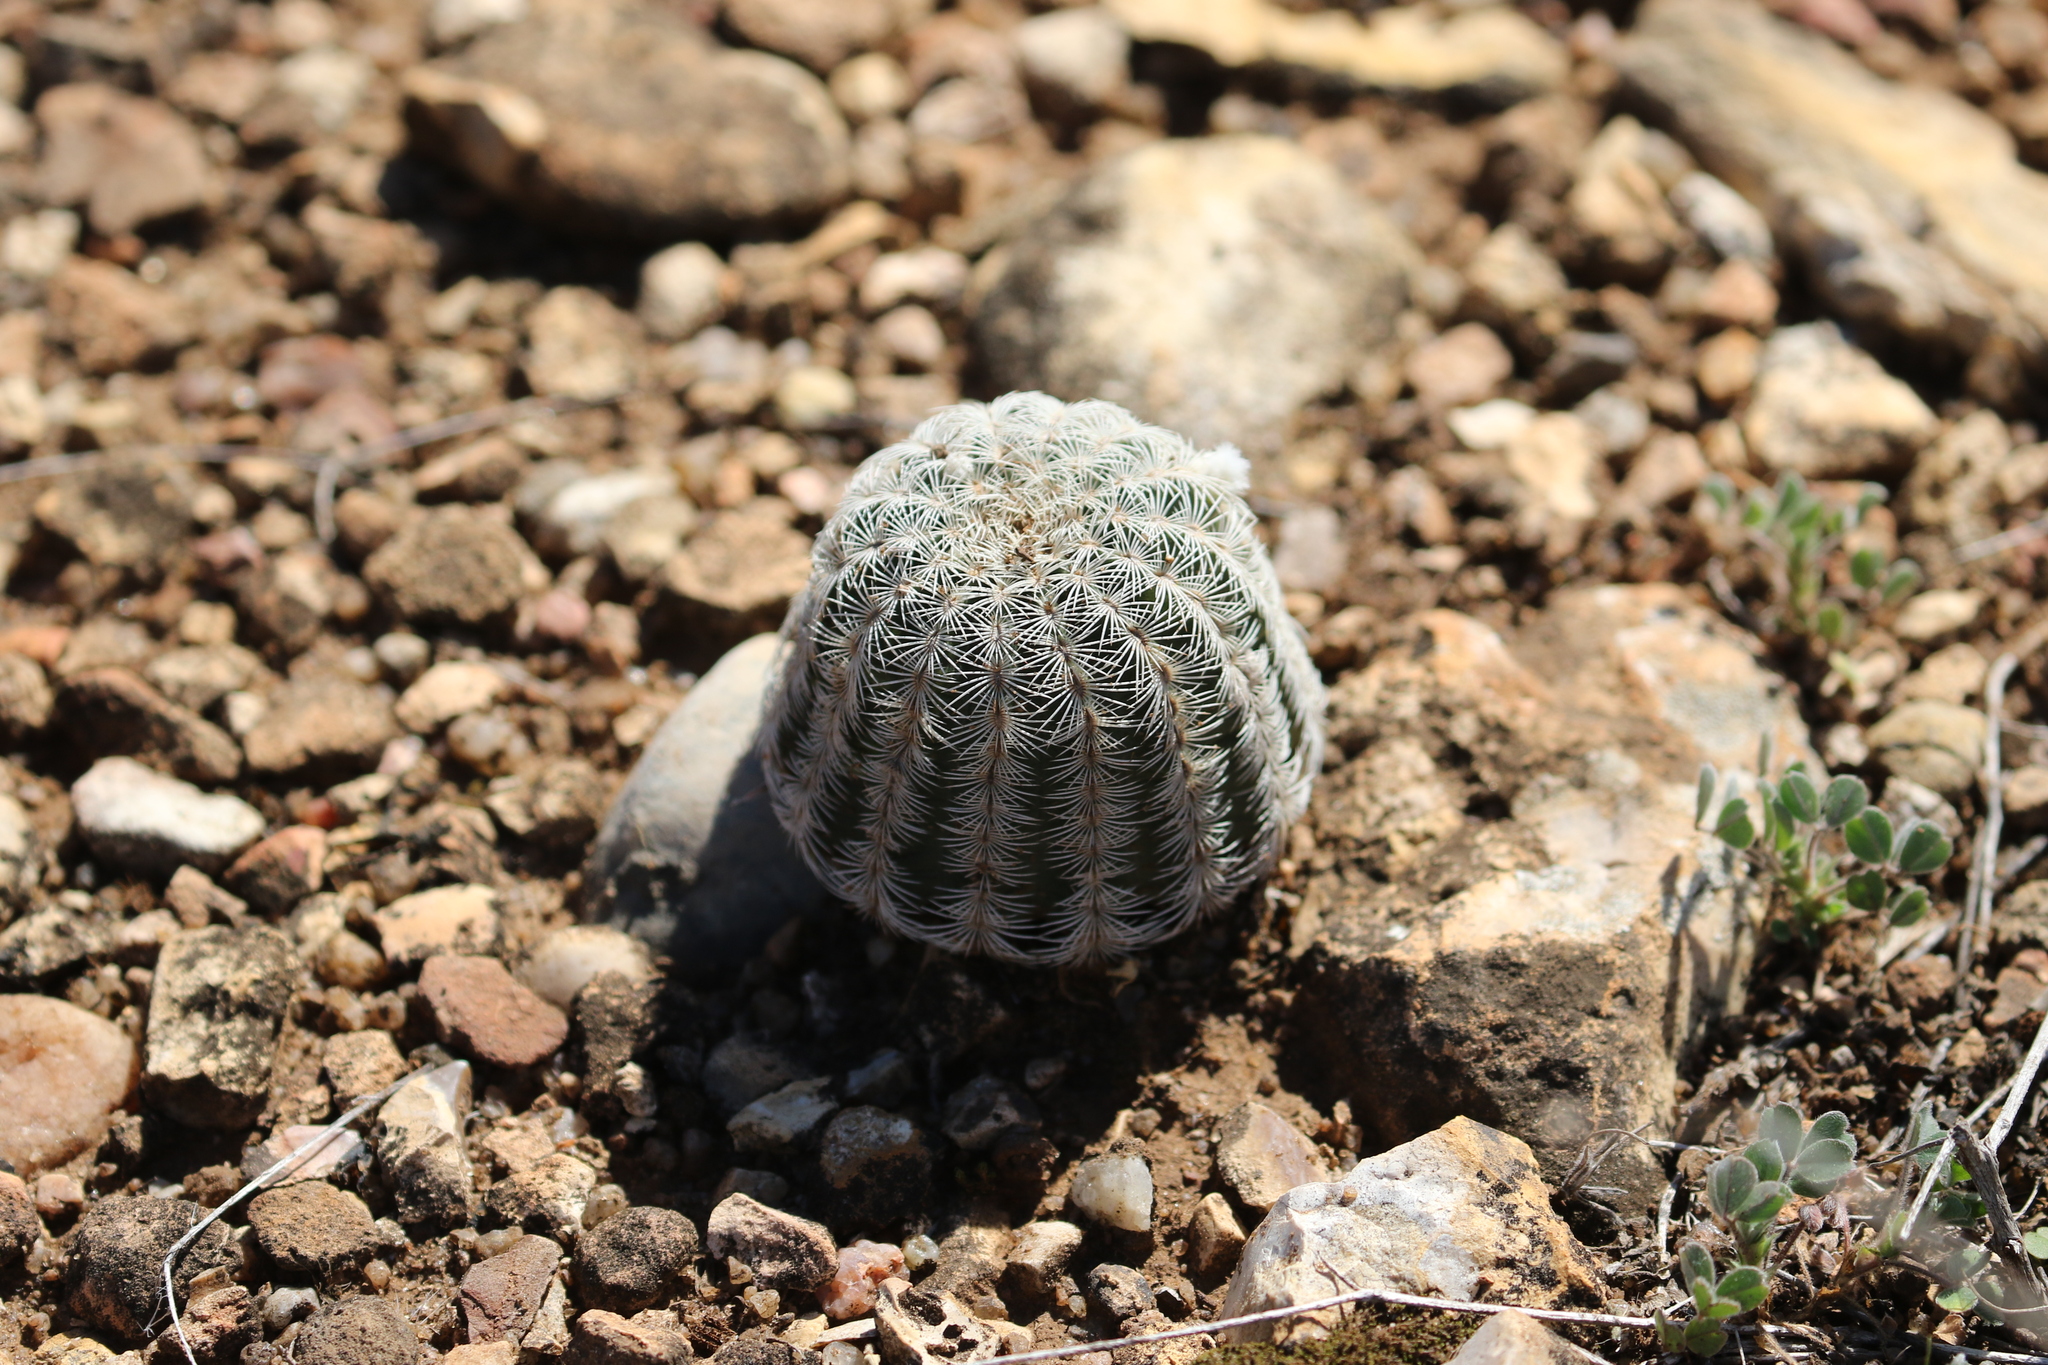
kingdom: Plantae
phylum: Tracheophyta
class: Magnoliopsida
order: Caryophyllales
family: Cactaceae
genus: Echinocereus
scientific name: Echinocereus reichenbachii
